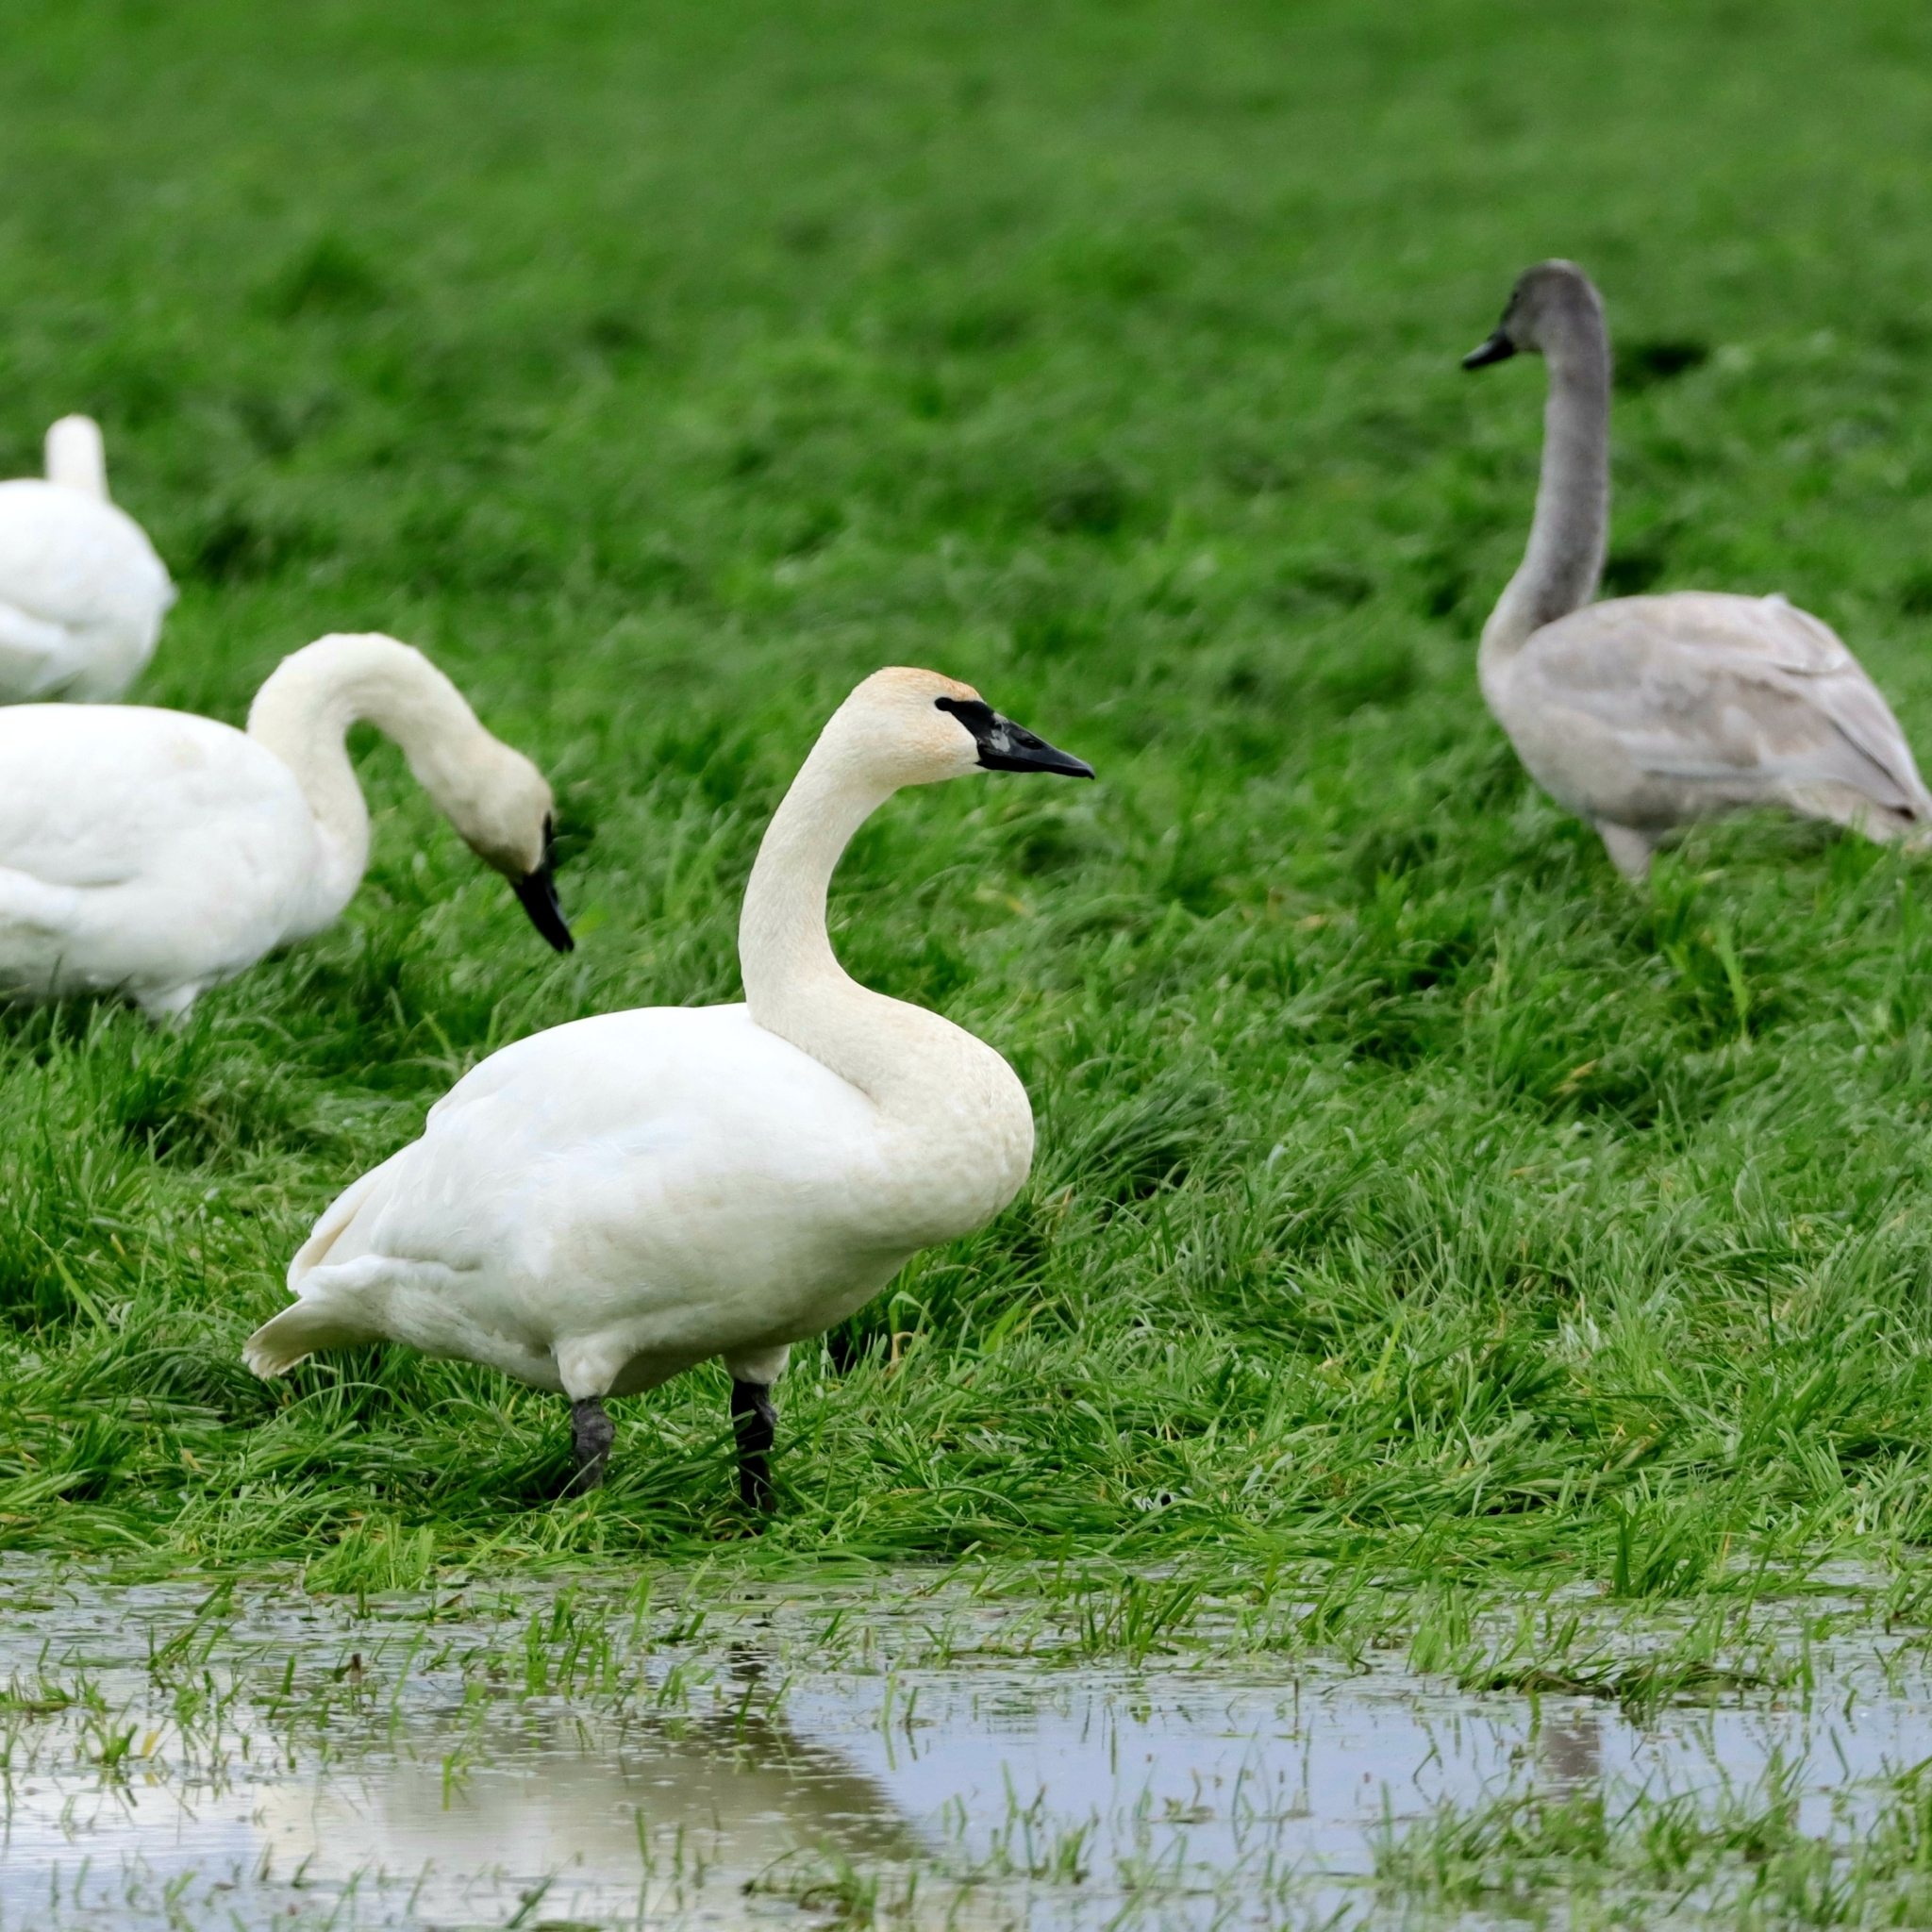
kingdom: Animalia
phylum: Chordata
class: Aves
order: Anseriformes
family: Anatidae
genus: Cygnus
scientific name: Cygnus buccinator
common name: Trumpeter swan
